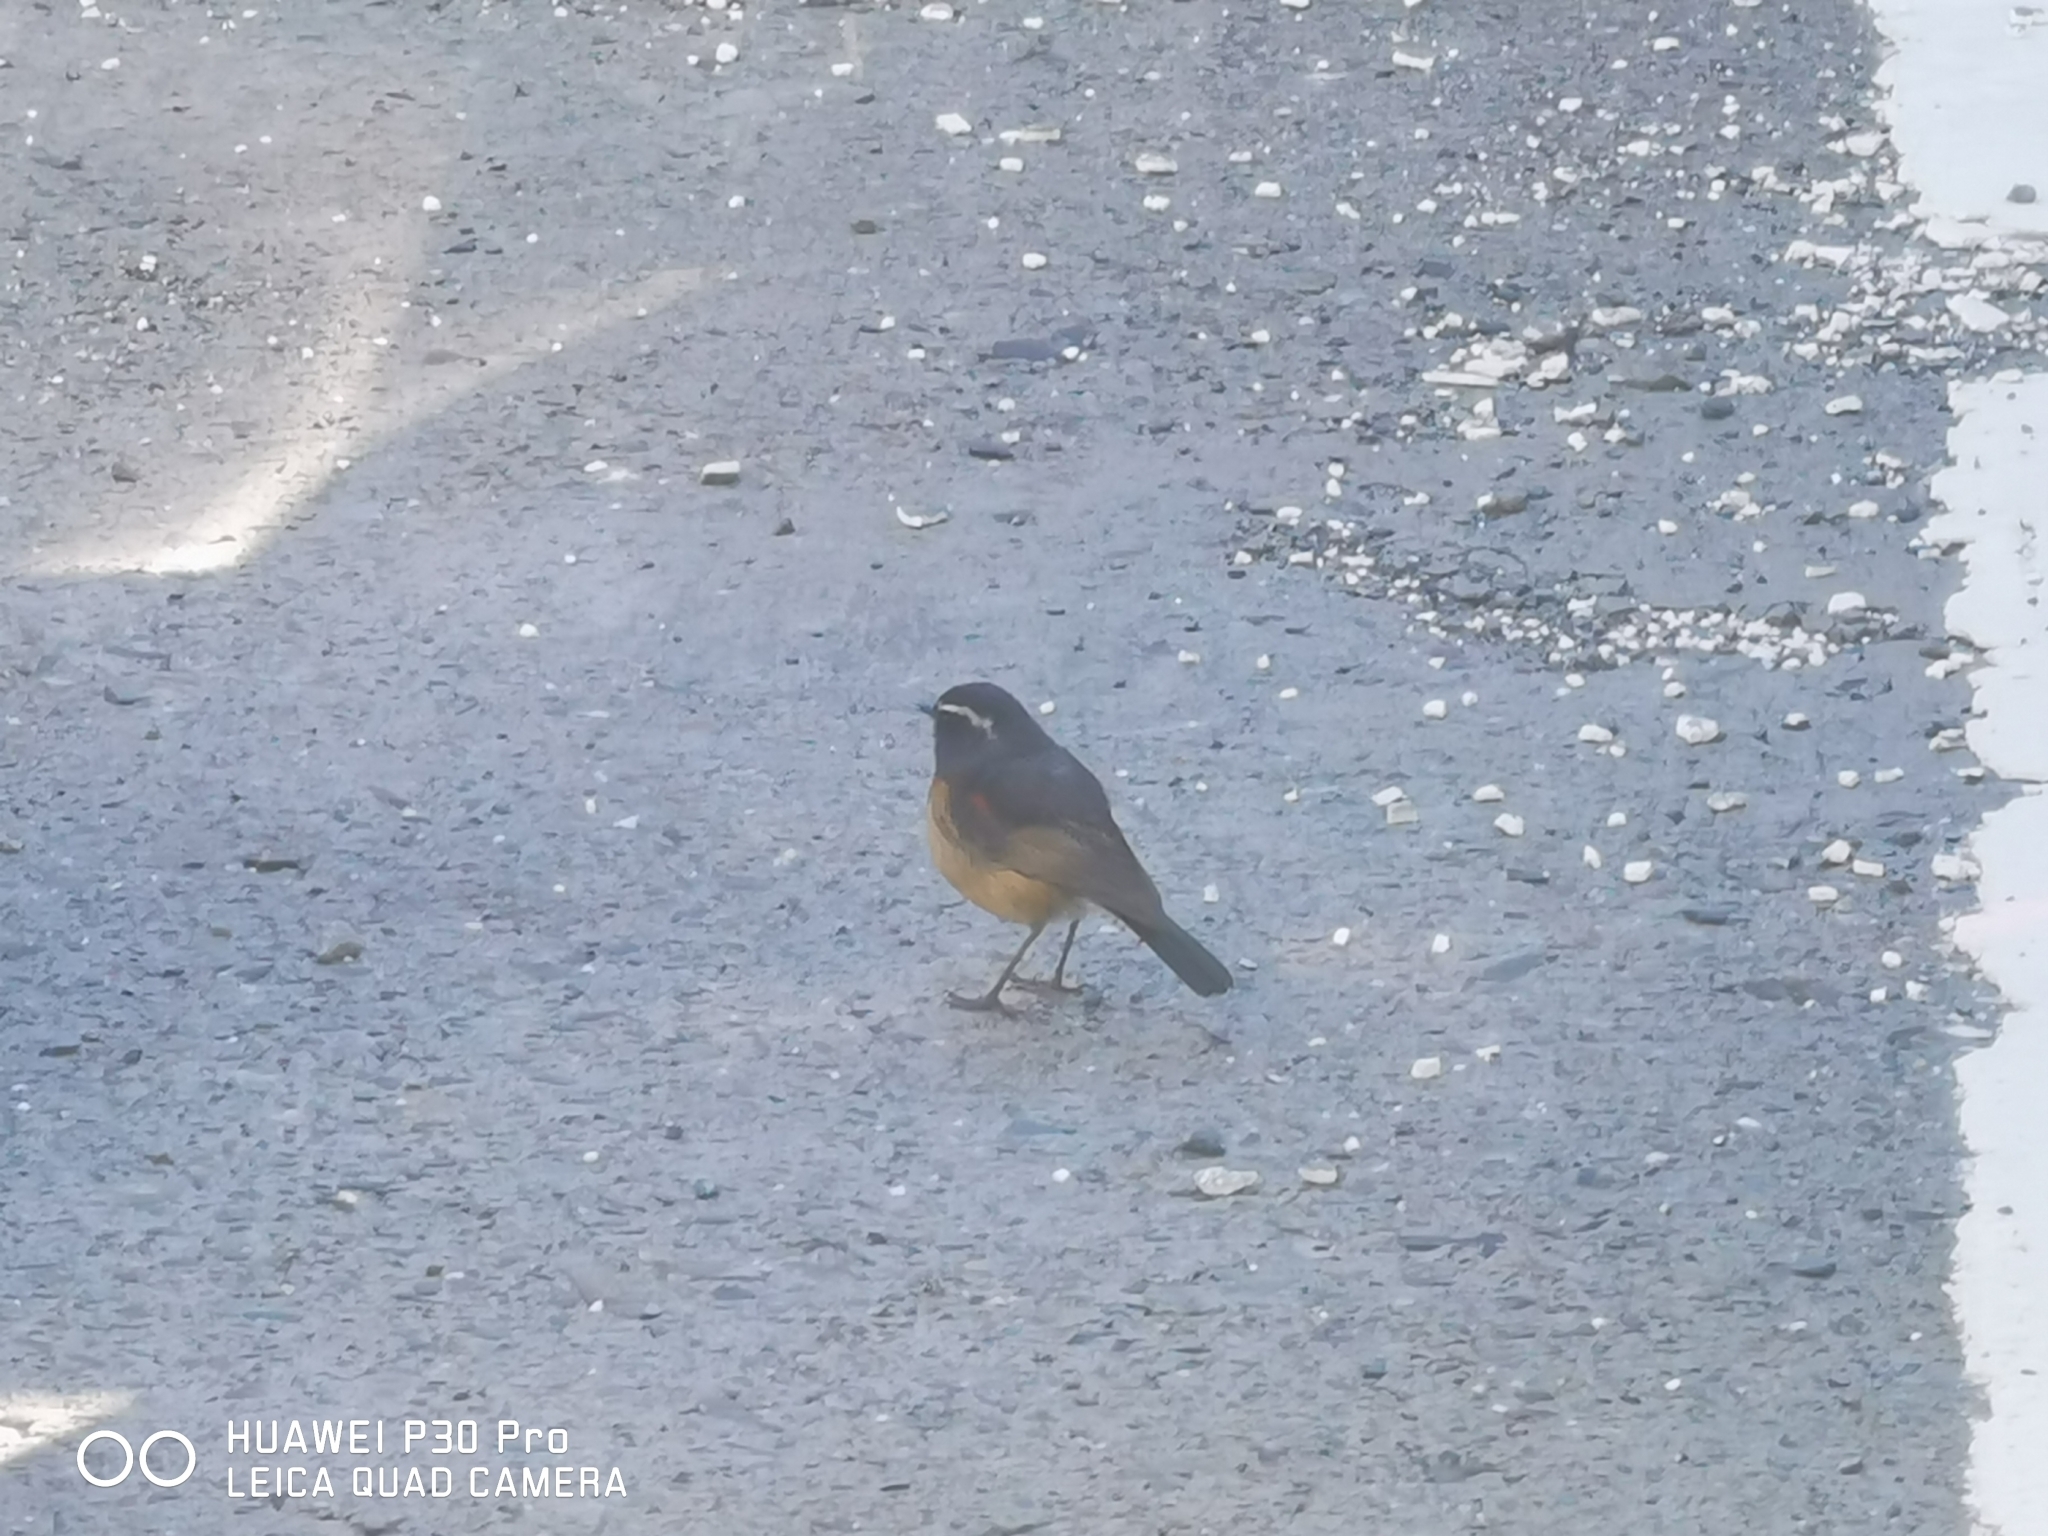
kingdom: Animalia
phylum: Chordata
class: Aves
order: Passeriformes
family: Muscicapidae
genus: Tarsiger
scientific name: Tarsiger johnstoniae
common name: Collared bush robin
